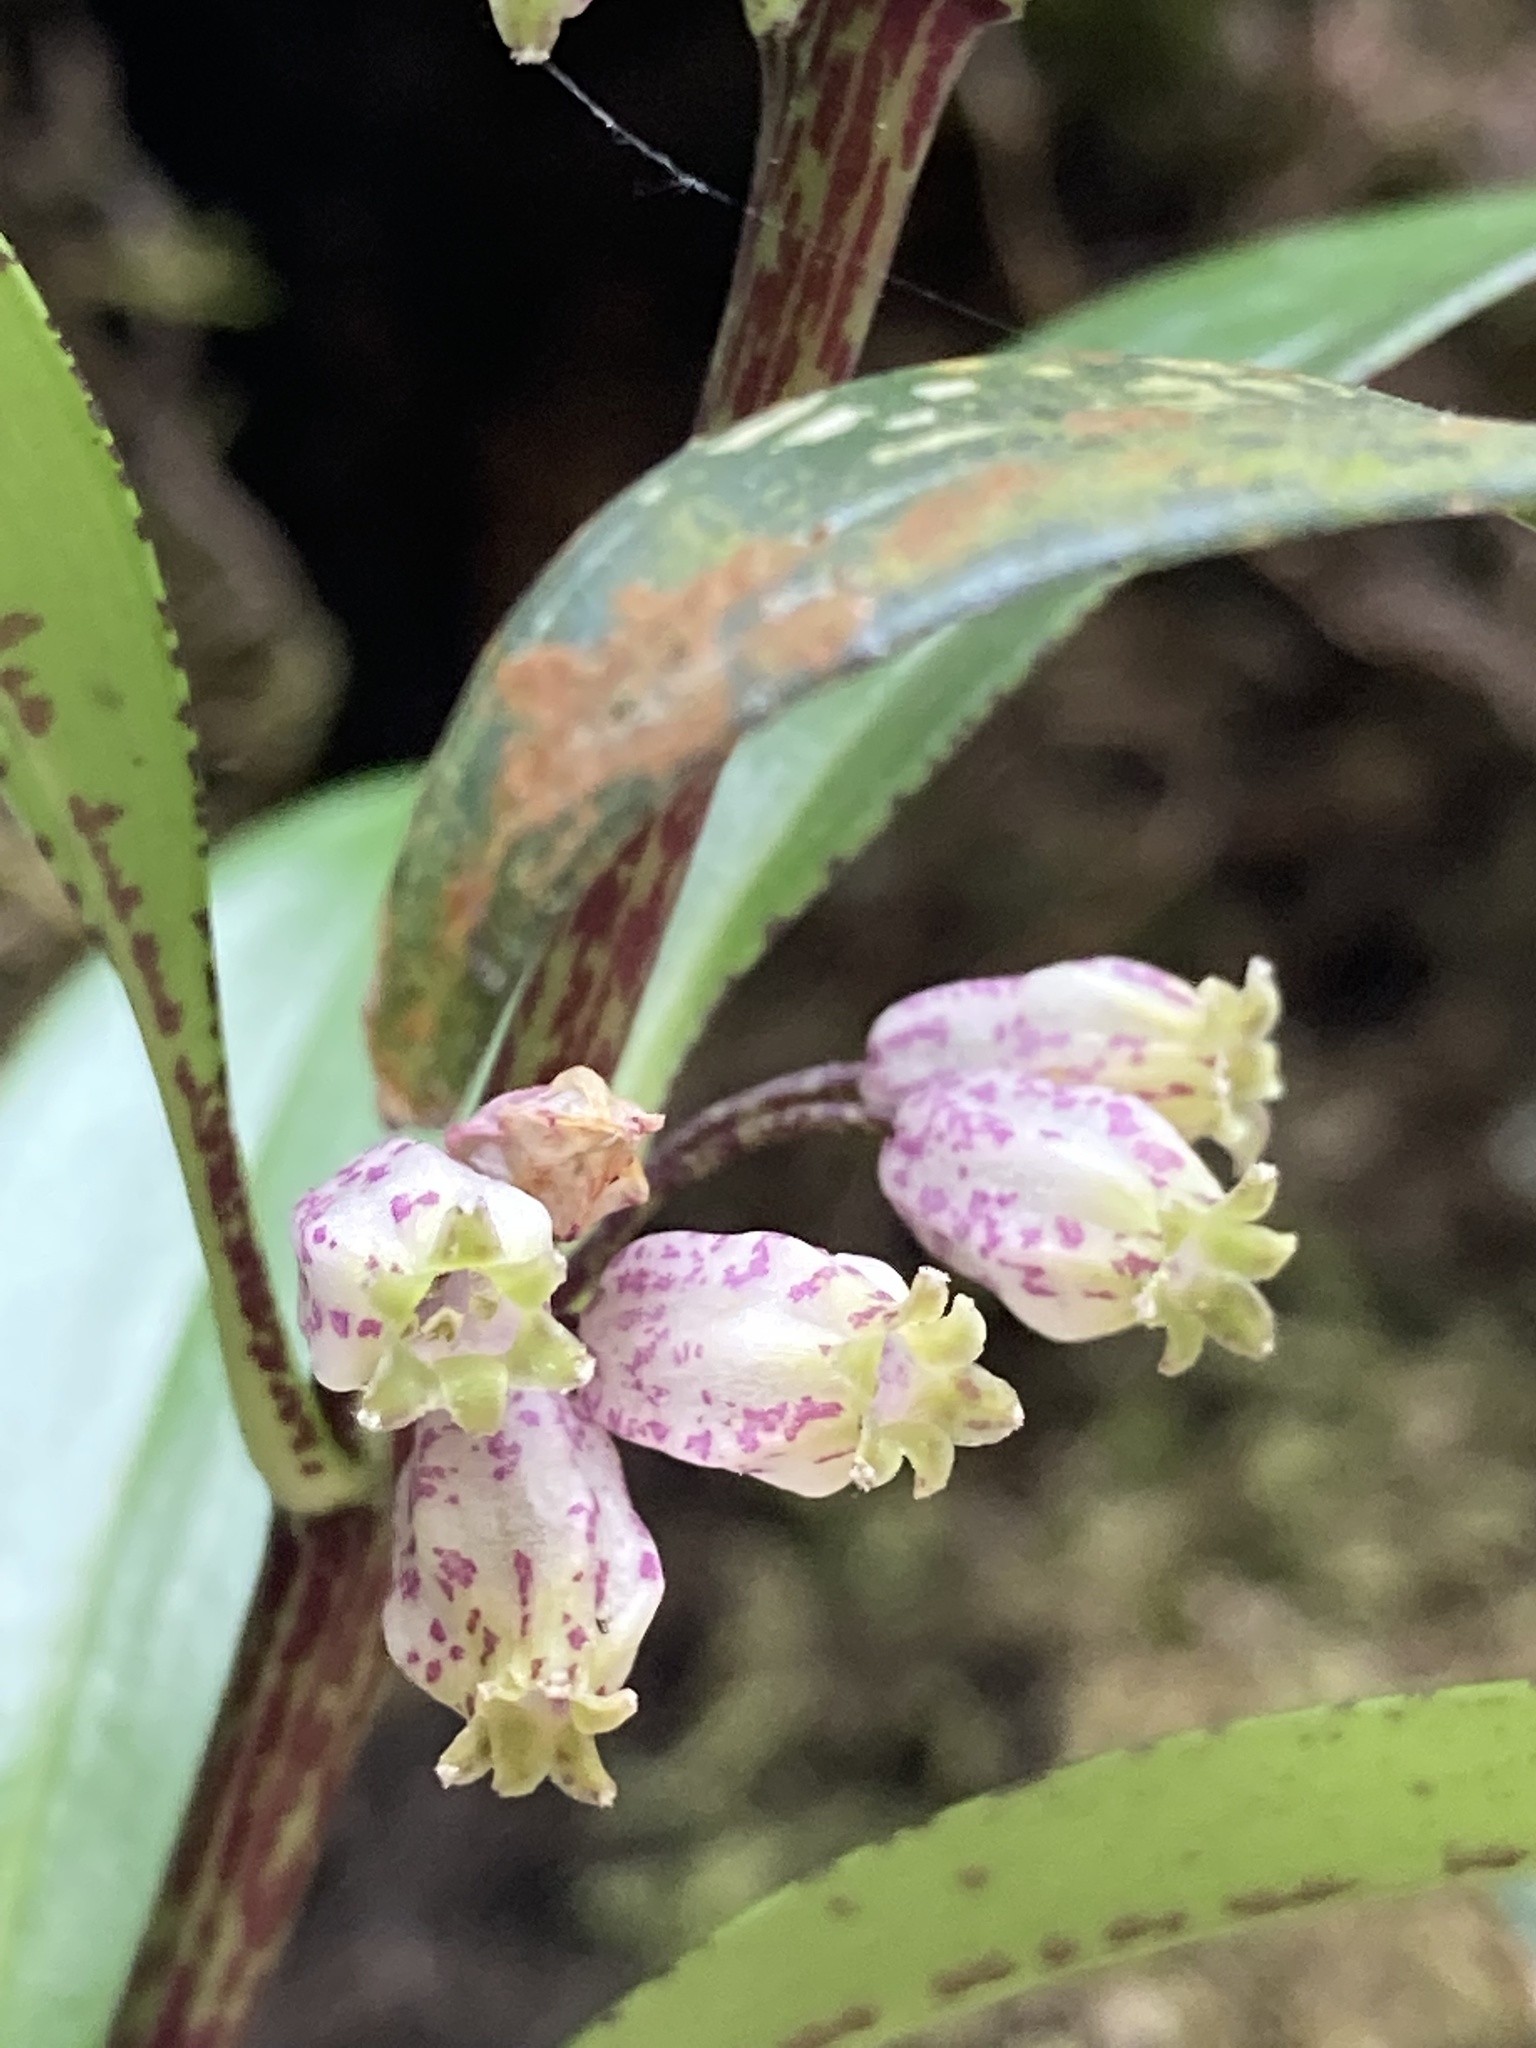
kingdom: Plantae
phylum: Tracheophyta
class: Liliopsida
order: Asparagales
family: Asparagaceae
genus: Polygonatum
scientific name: Polygonatum punctatum
